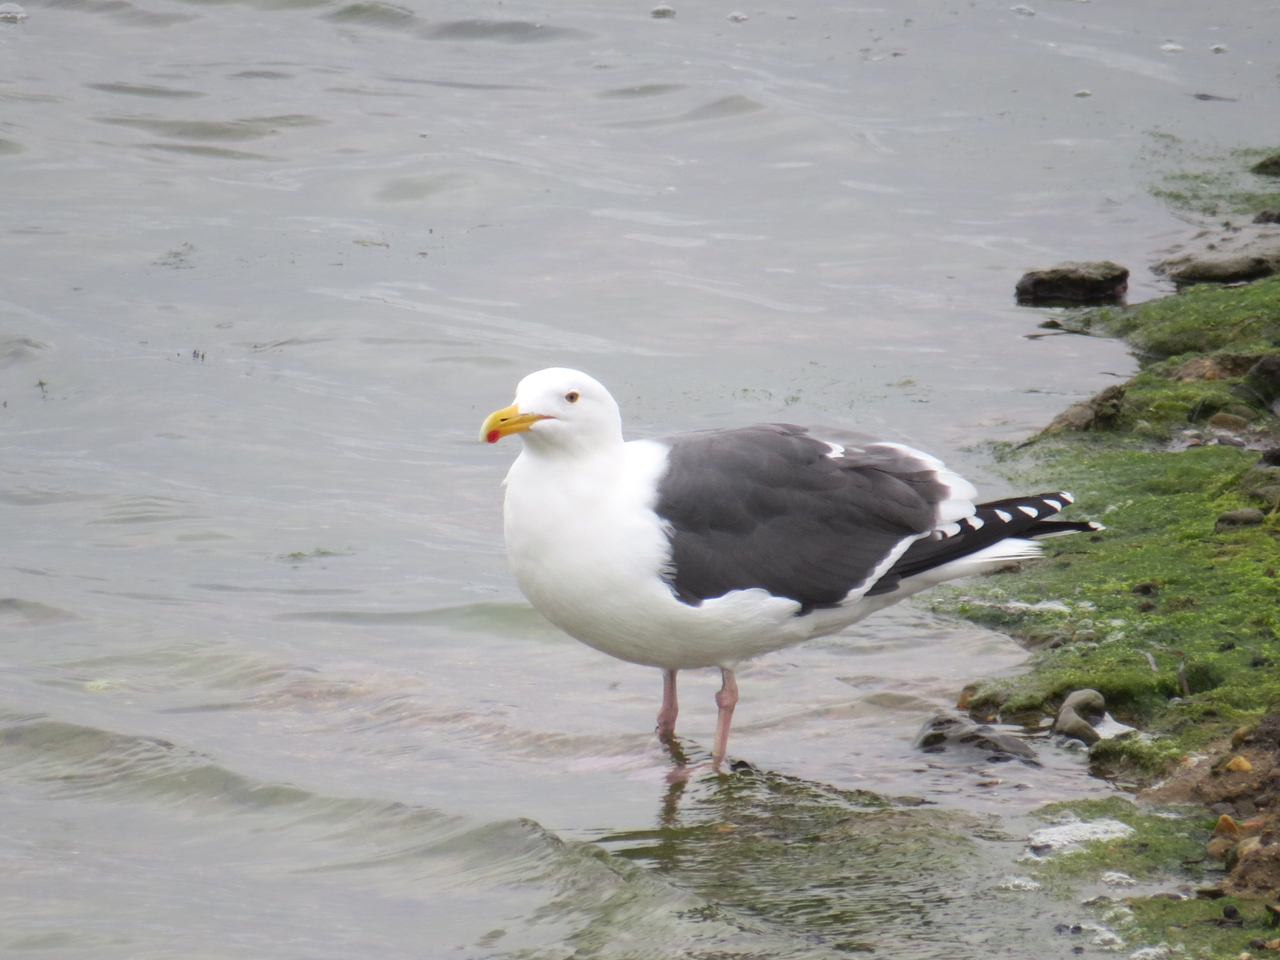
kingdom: Animalia
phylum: Chordata
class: Aves
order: Charadriiformes
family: Laridae
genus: Larus
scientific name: Larus occidentalis
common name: Western gull
